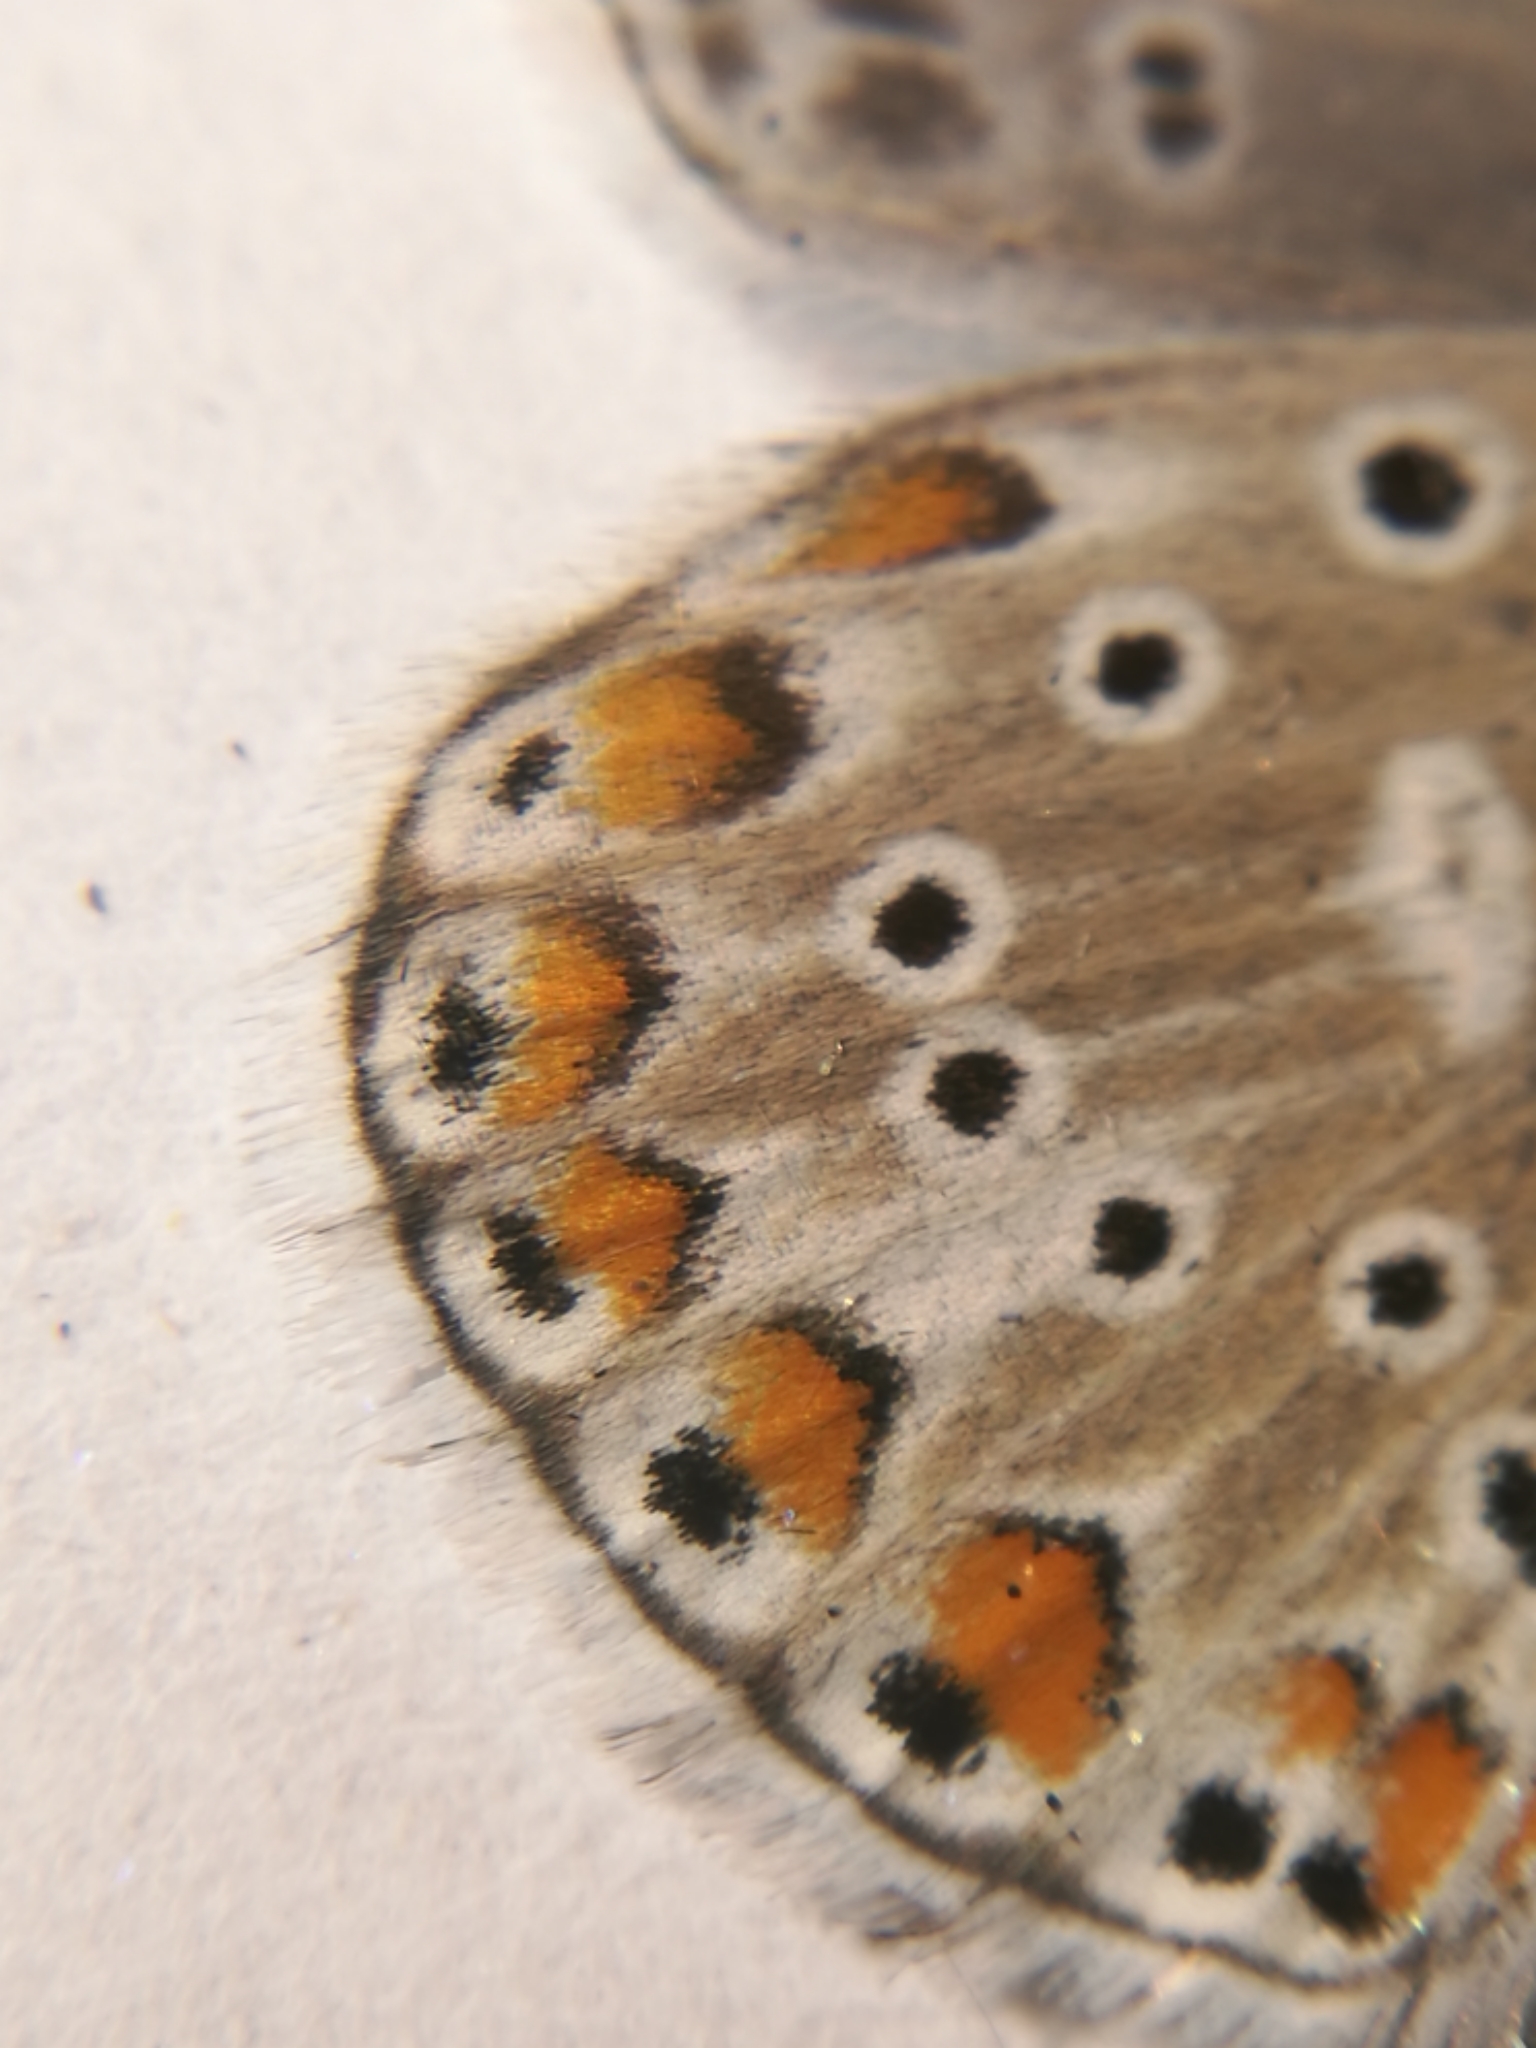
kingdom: Animalia
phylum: Arthropoda
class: Insecta
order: Lepidoptera
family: Lycaenidae
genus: Lysandra
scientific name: Lysandra bellargus
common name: Adonis blue
